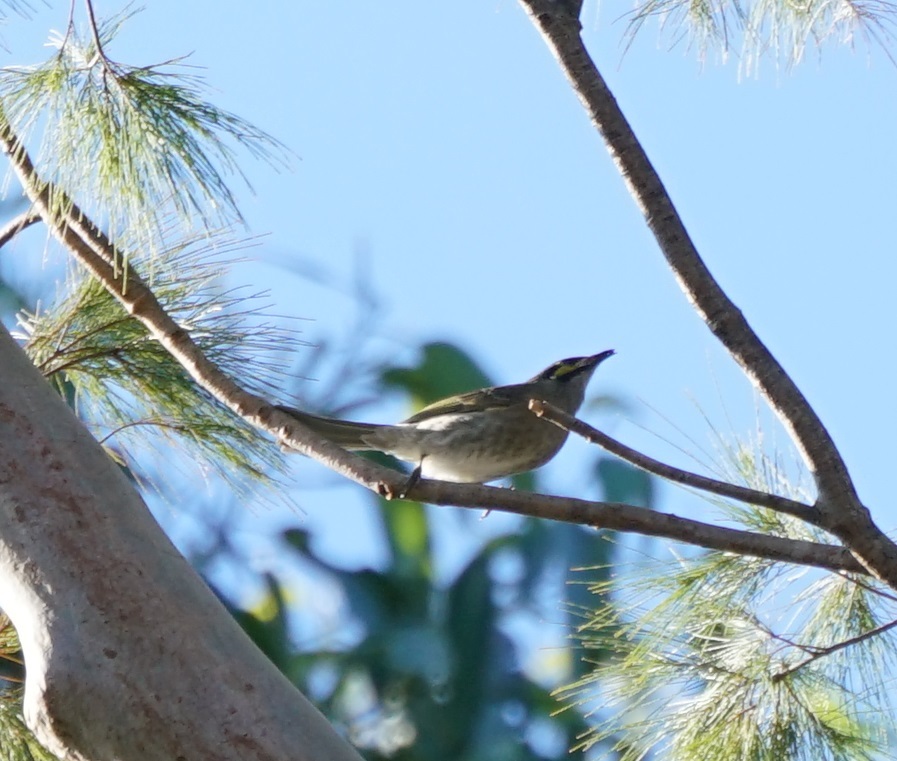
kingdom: Animalia
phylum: Chordata
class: Aves
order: Passeriformes
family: Meliphagidae
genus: Caligavis
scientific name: Caligavis chrysops
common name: Yellow-faced honeyeater
